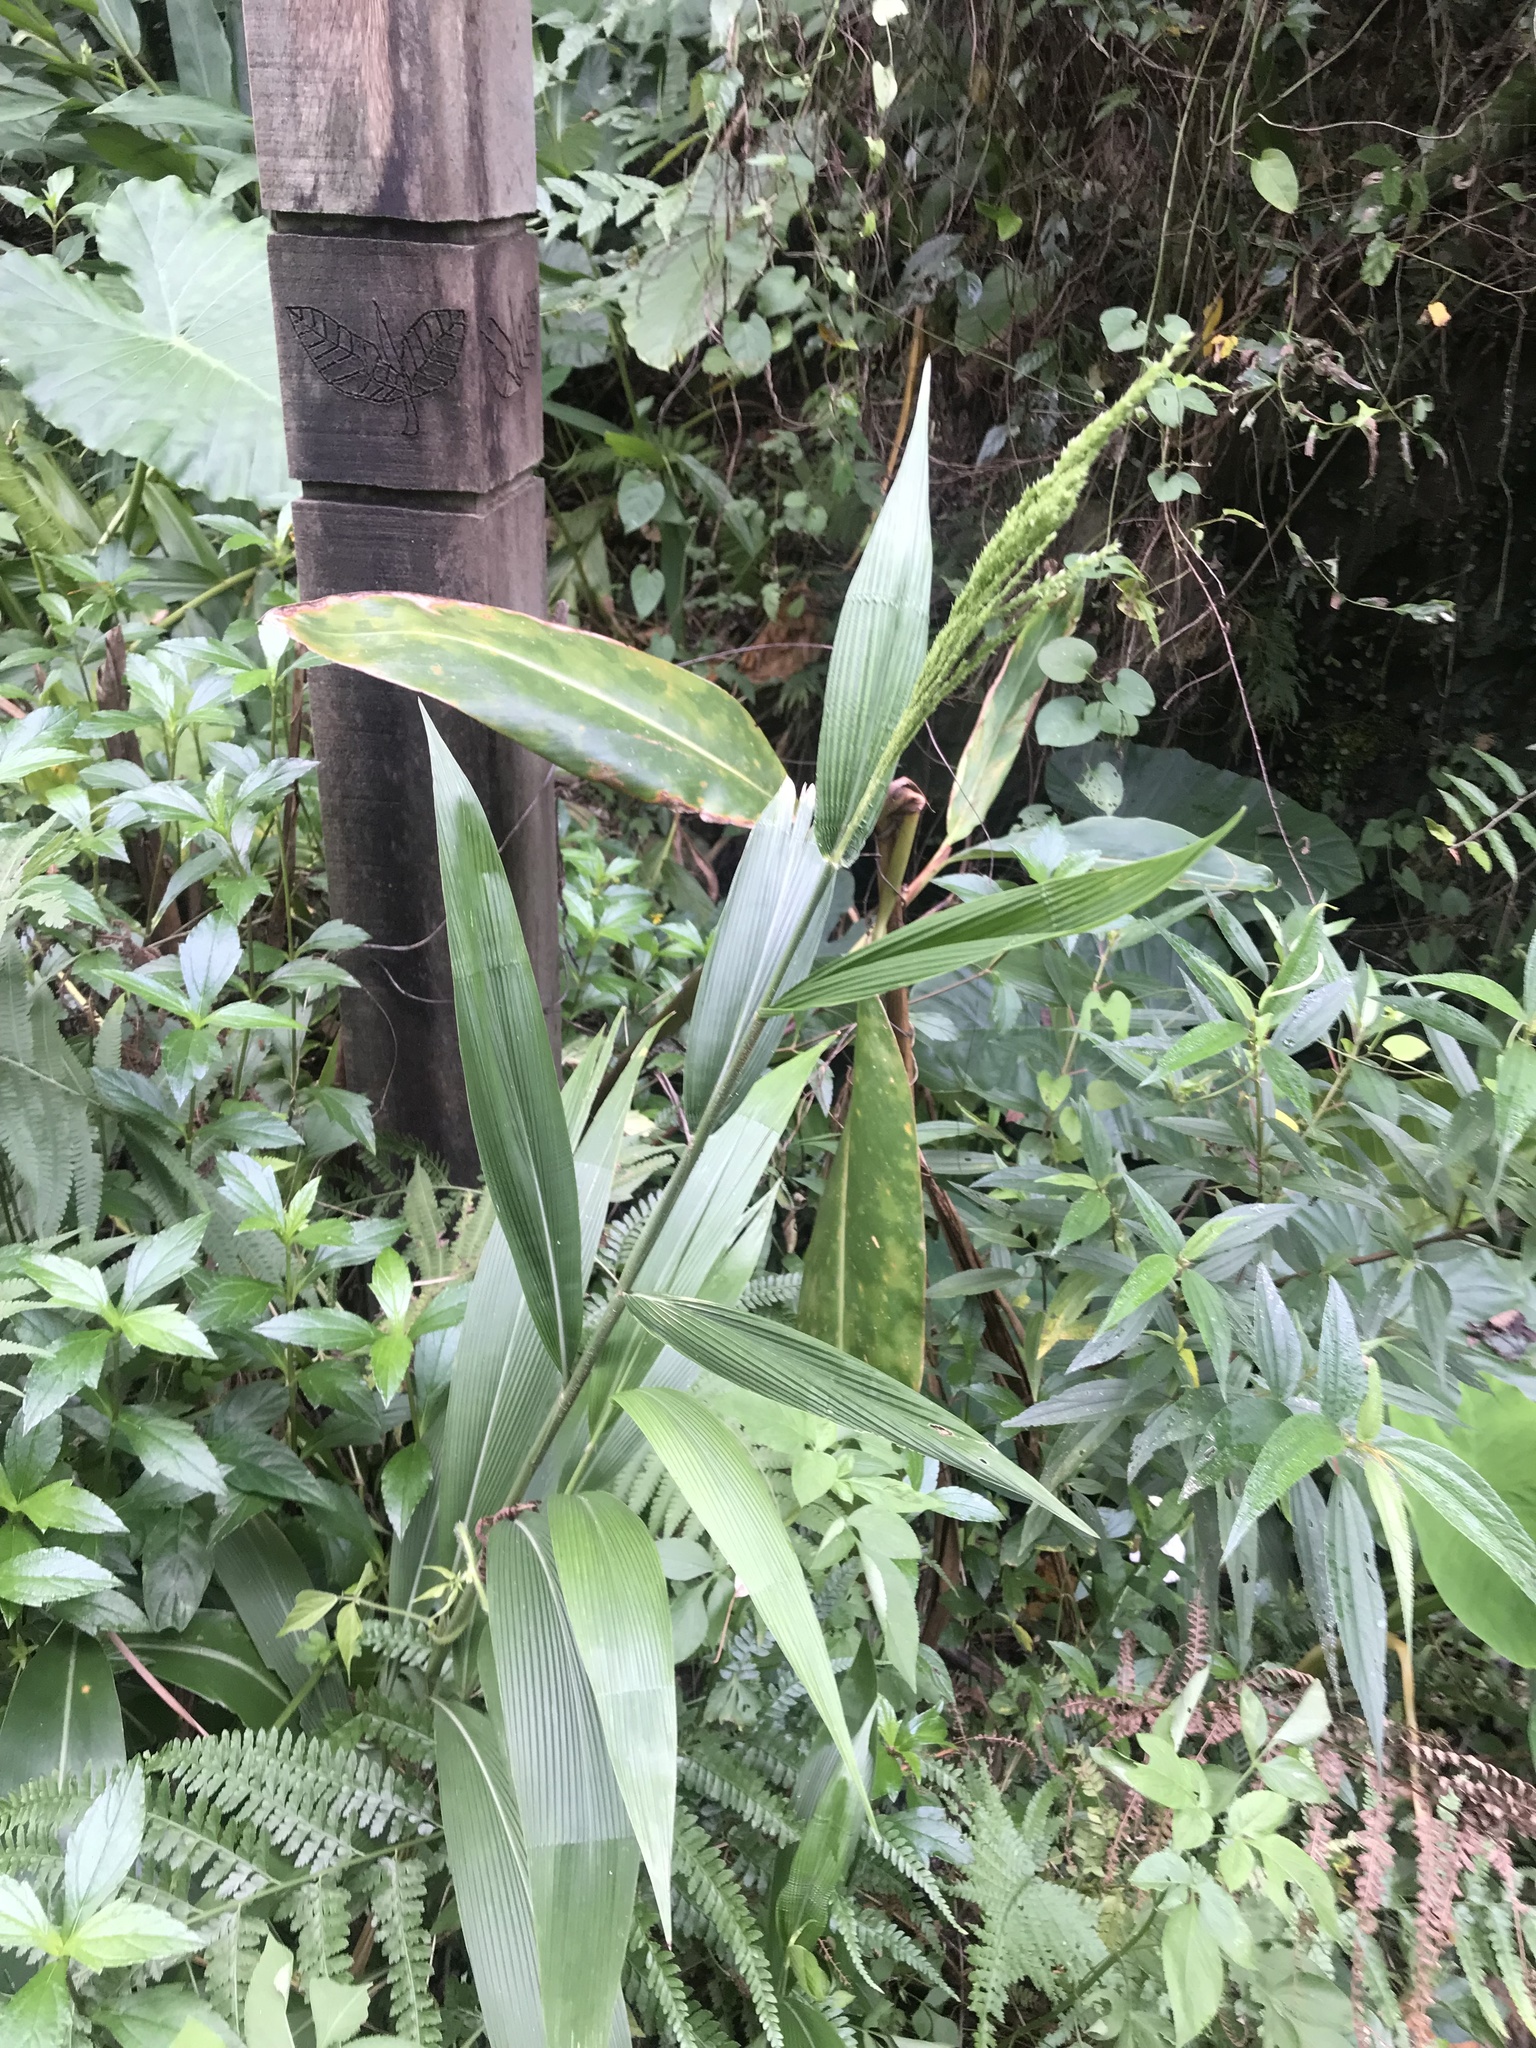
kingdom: Plantae
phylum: Tracheophyta
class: Liliopsida
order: Poales
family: Poaceae
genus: Setaria
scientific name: Setaria palmifolia
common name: Broadleaved bristlegrass
